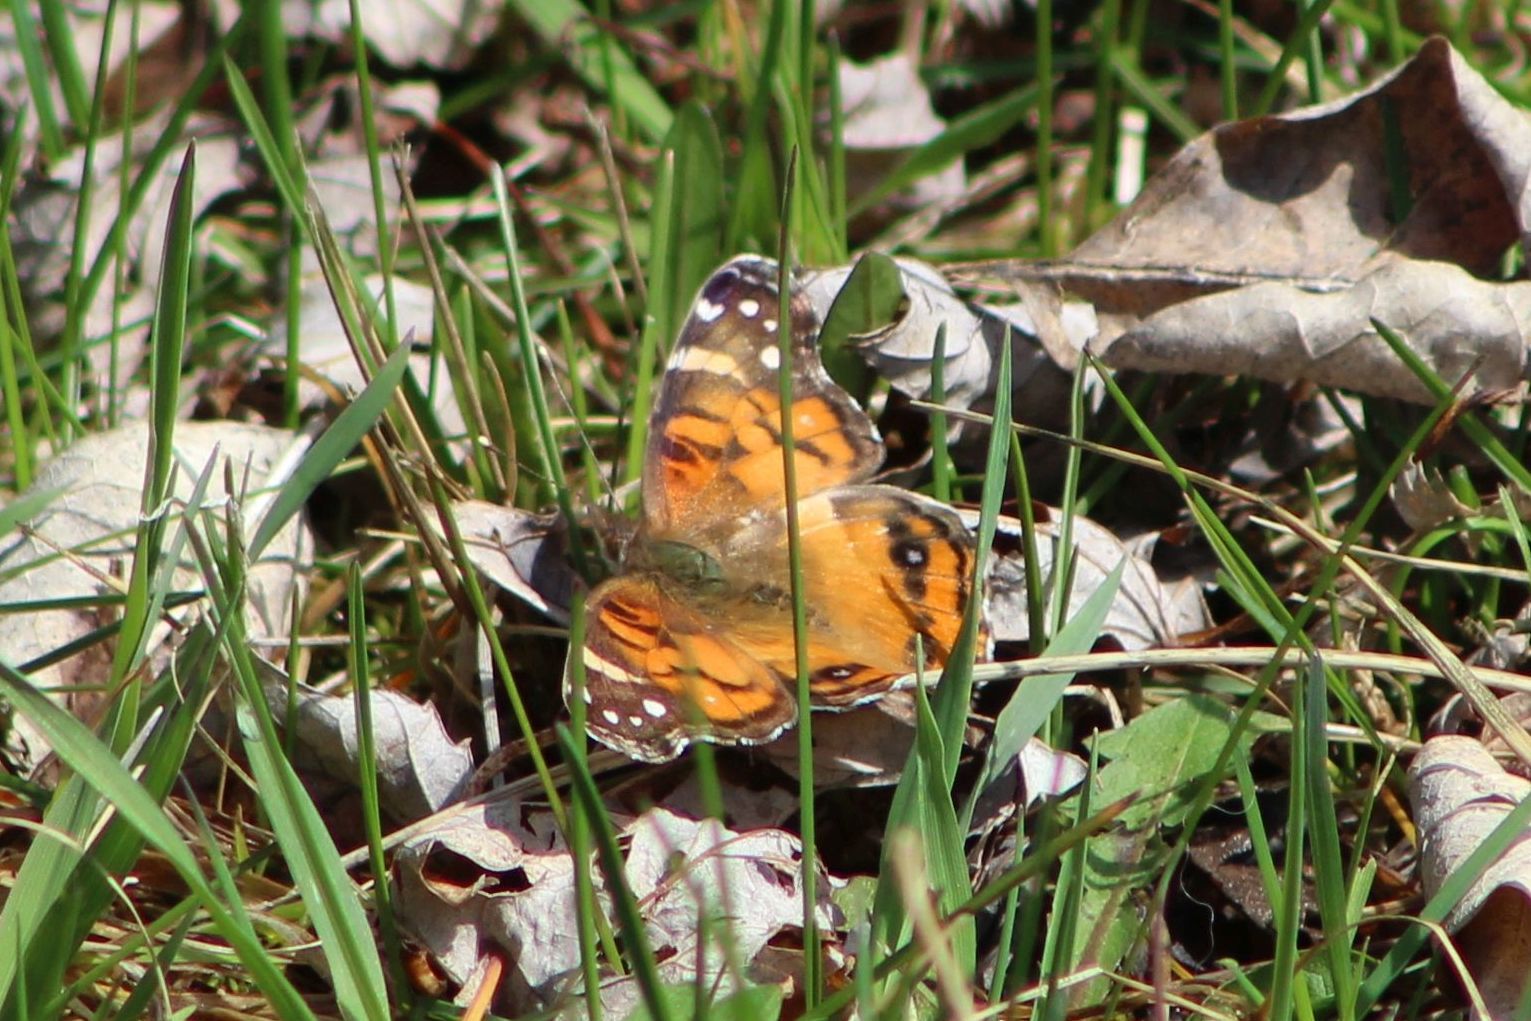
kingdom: Animalia
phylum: Arthropoda
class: Insecta
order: Lepidoptera
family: Nymphalidae
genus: Vanessa
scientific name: Vanessa virginiensis
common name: American lady
